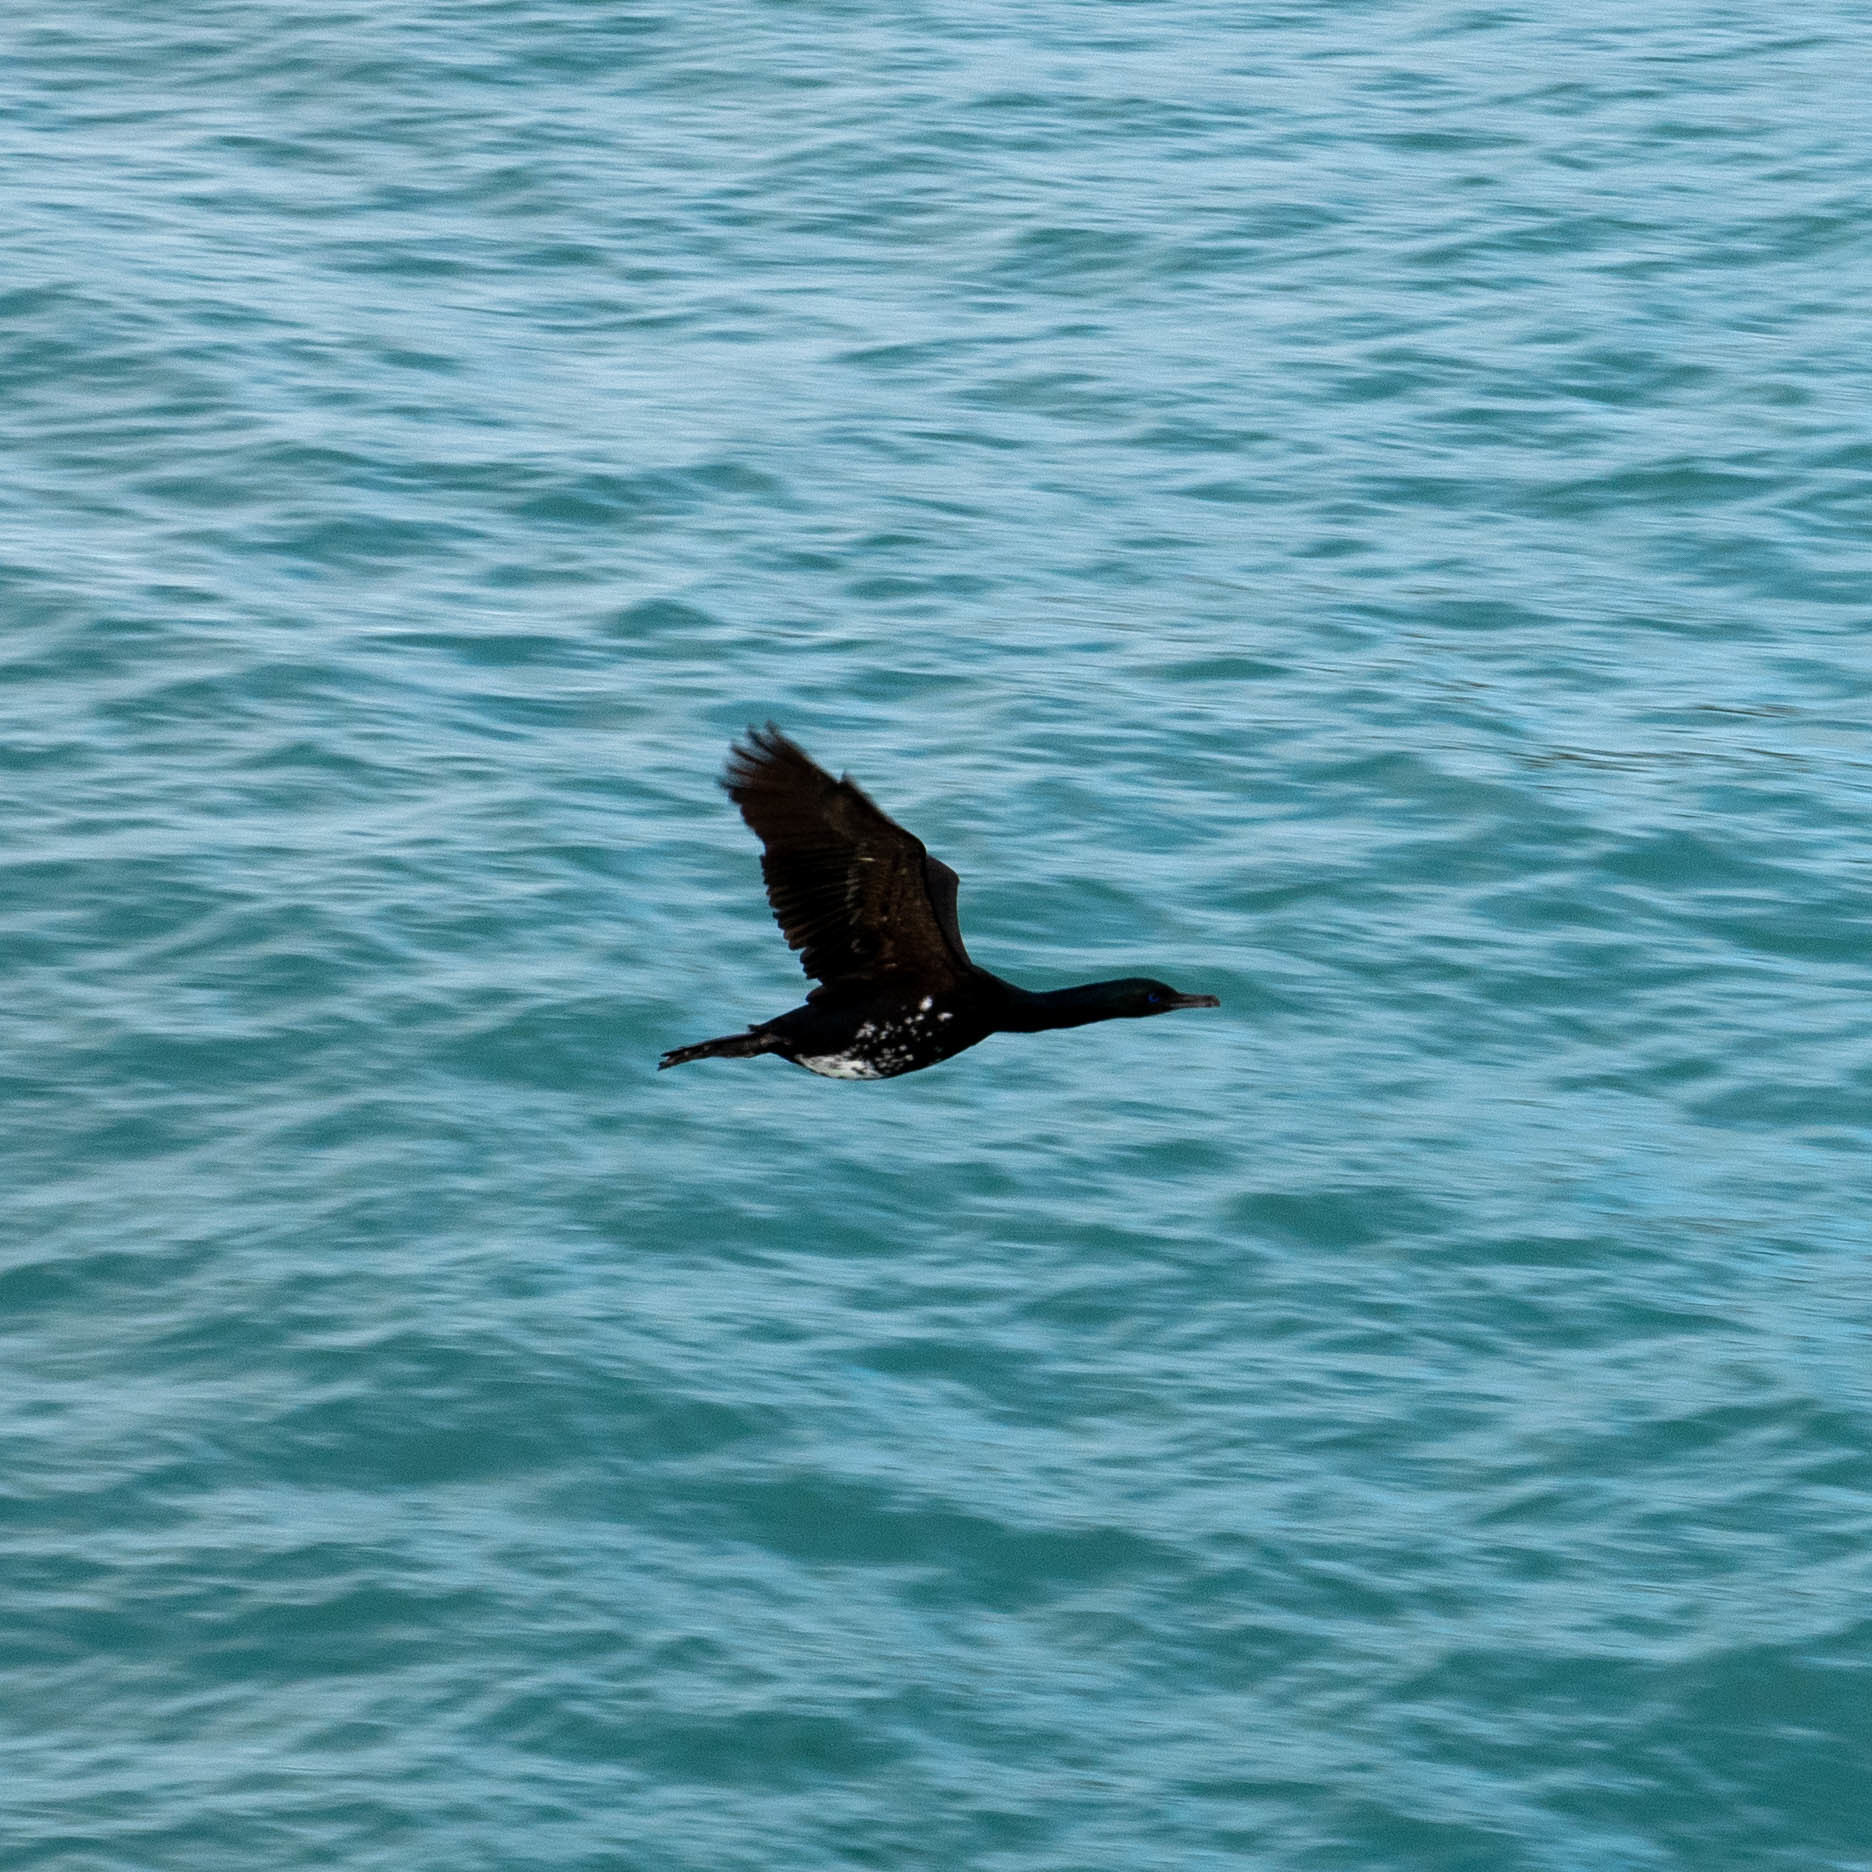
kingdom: Animalia
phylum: Chordata
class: Aves
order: Suliformes
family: Phalacrocoracidae
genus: Leucocarbo
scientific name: Leucocarbo chalconotus
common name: Stewart shag
